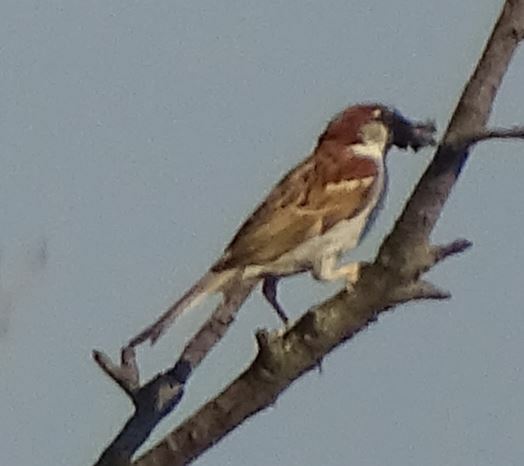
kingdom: Animalia
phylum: Chordata
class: Aves
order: Passeriformes
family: Passeridae
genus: Passer
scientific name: Passer domesticus
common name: House sparrow
